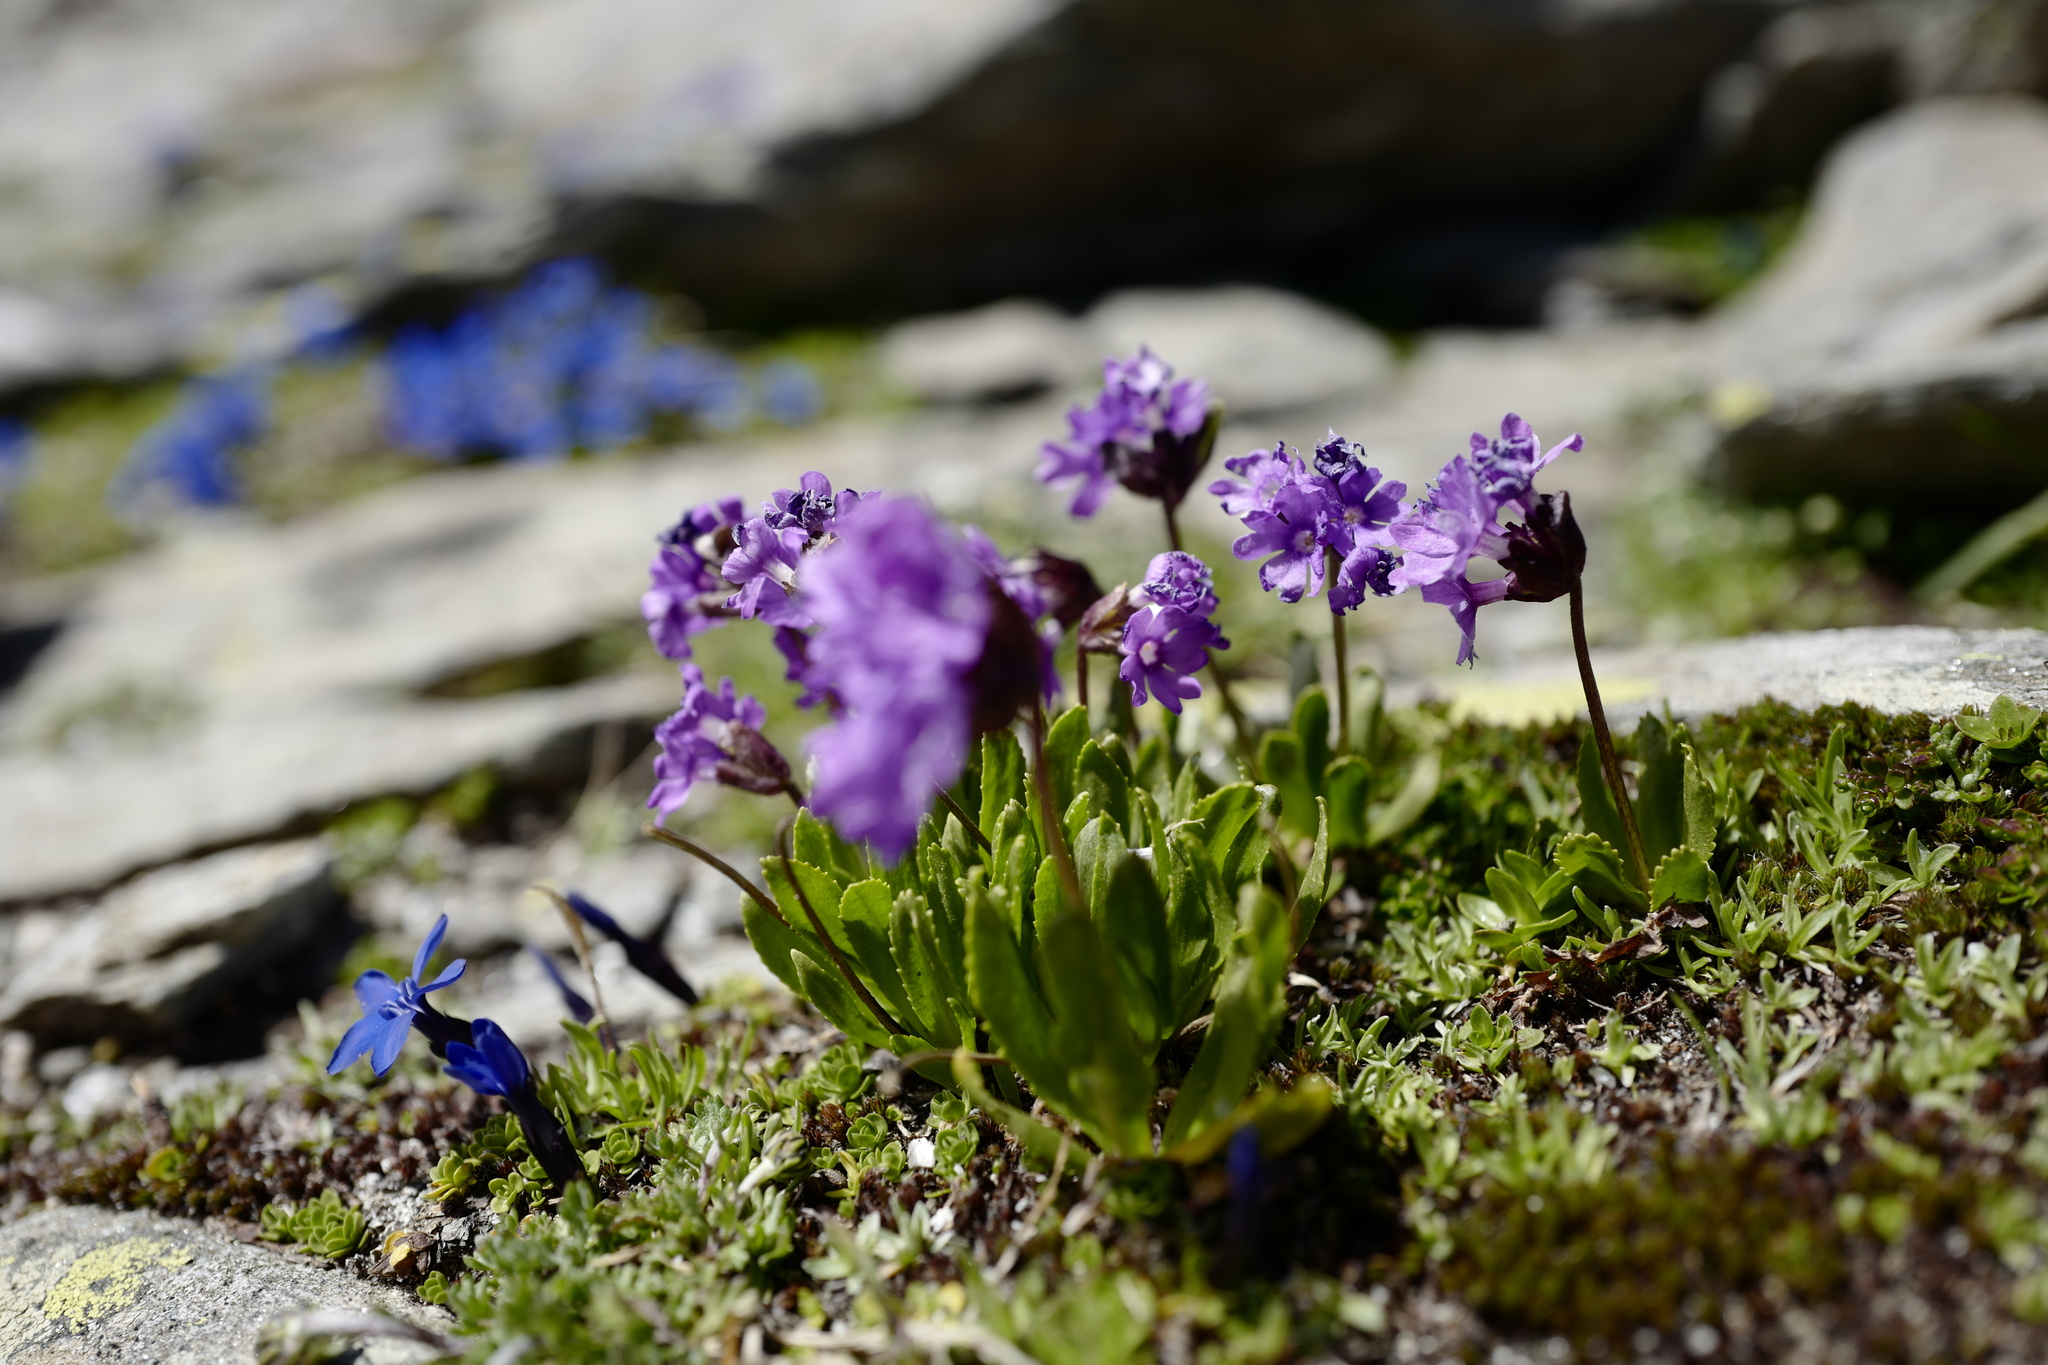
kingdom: Plantae
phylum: Tracheophyta
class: Magnoliopsida
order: Ericales
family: Primulaceae
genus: Primula
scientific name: Primula glutinosa
